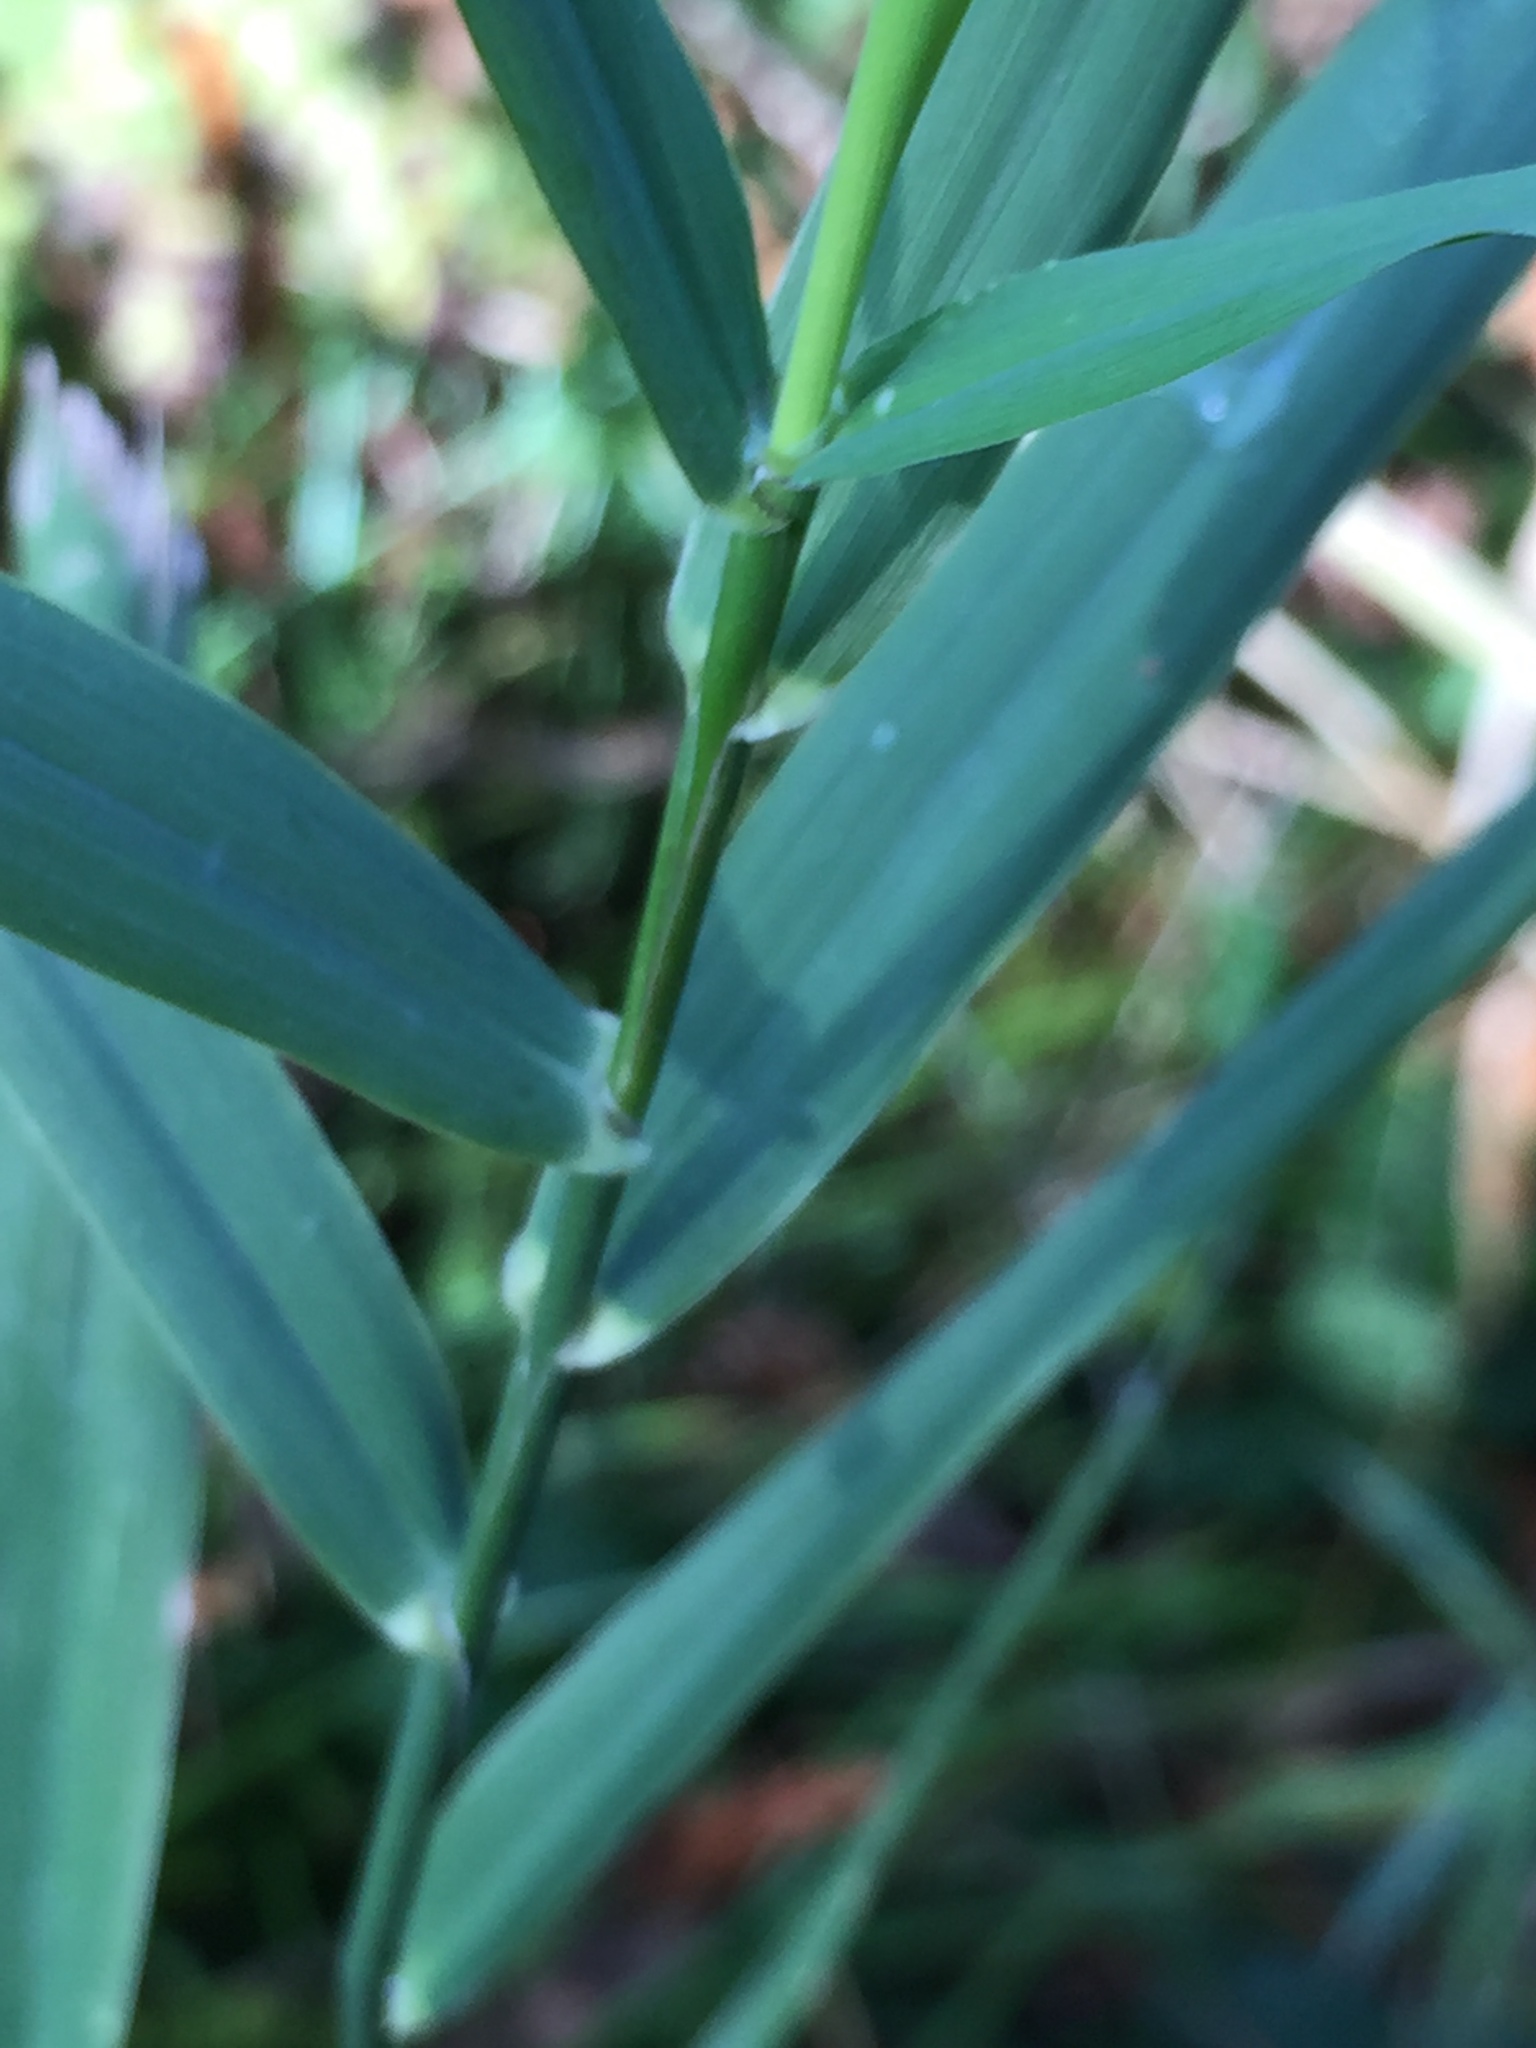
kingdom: Plantae
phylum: Tracheophyta
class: Liliopsida
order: Poales
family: Poaceae
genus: Phalaris
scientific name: Phalaris arundinacea
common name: Reed canary-grass
